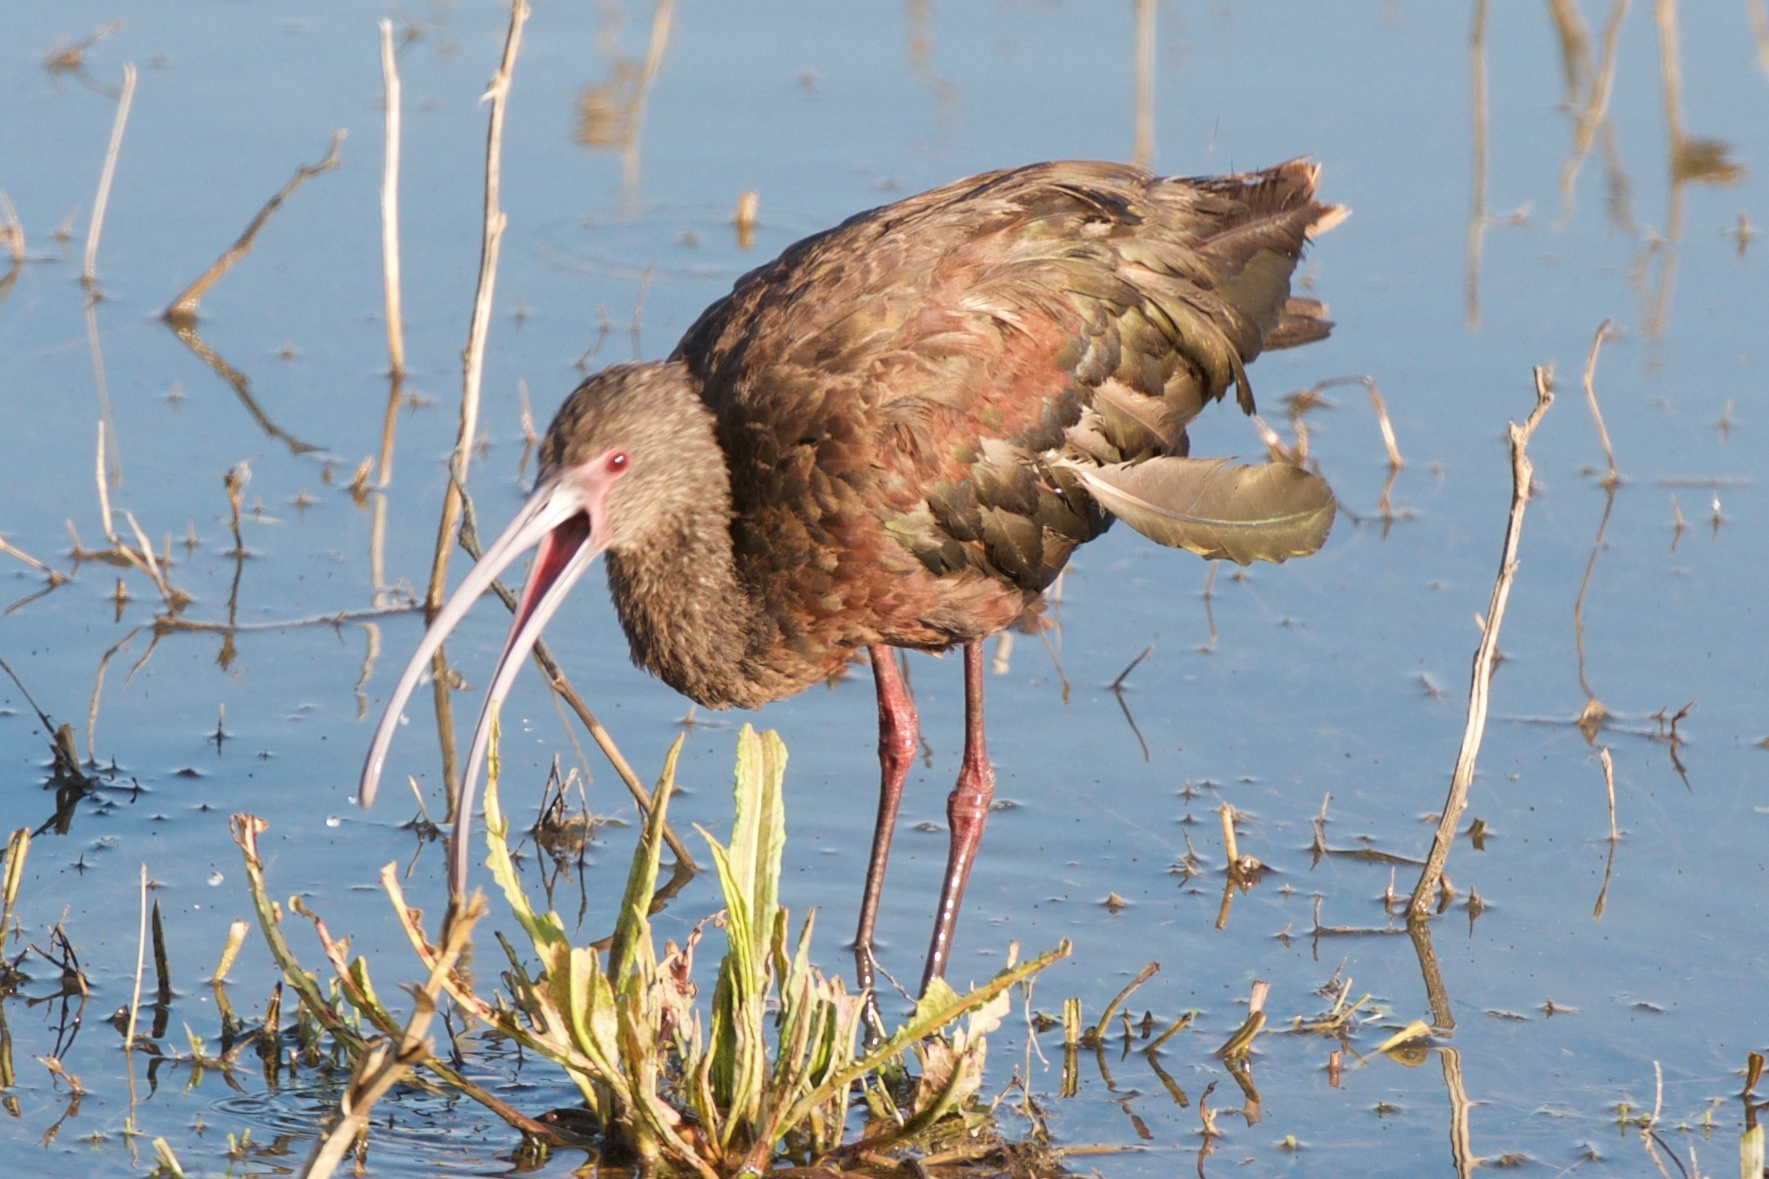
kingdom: Animalia
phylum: Chordata
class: Aves
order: Pelecaniformes
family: Threskiornithidae
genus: Plegadis
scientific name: Plegadis chihi
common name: White-faced ibis
